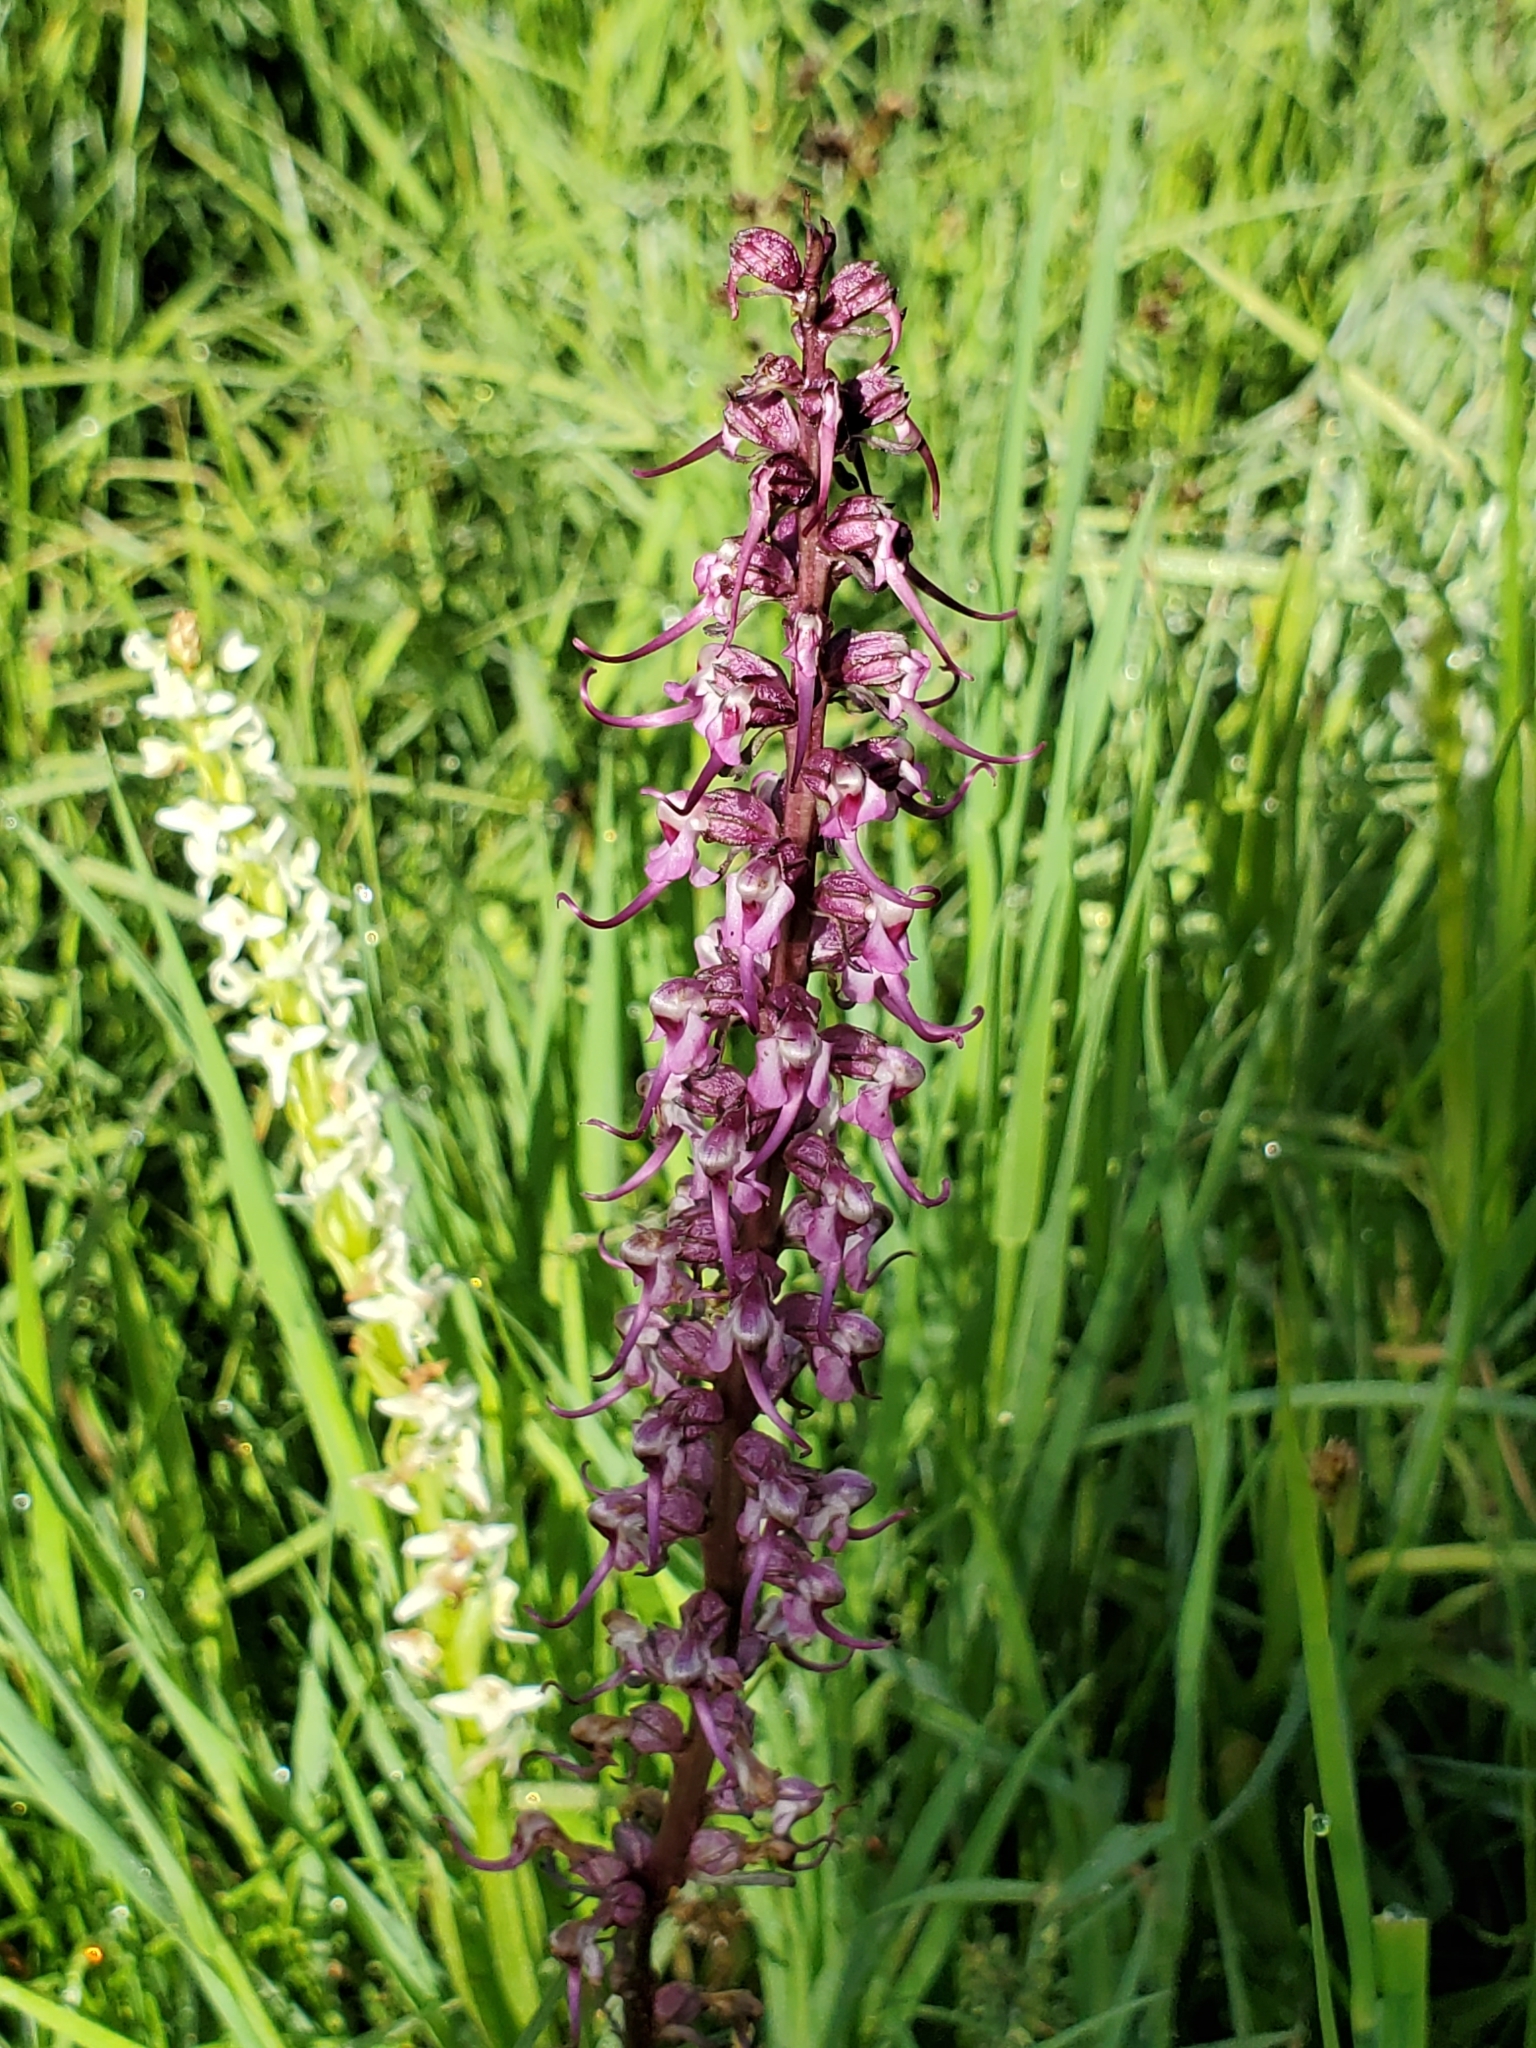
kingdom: Plantae
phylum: Tracheophyta
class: Magnoliopsida
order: Lamiales
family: Orobanchaceae
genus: Pedicularis
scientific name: Pedicularis groenlandica
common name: Elephant's-head
